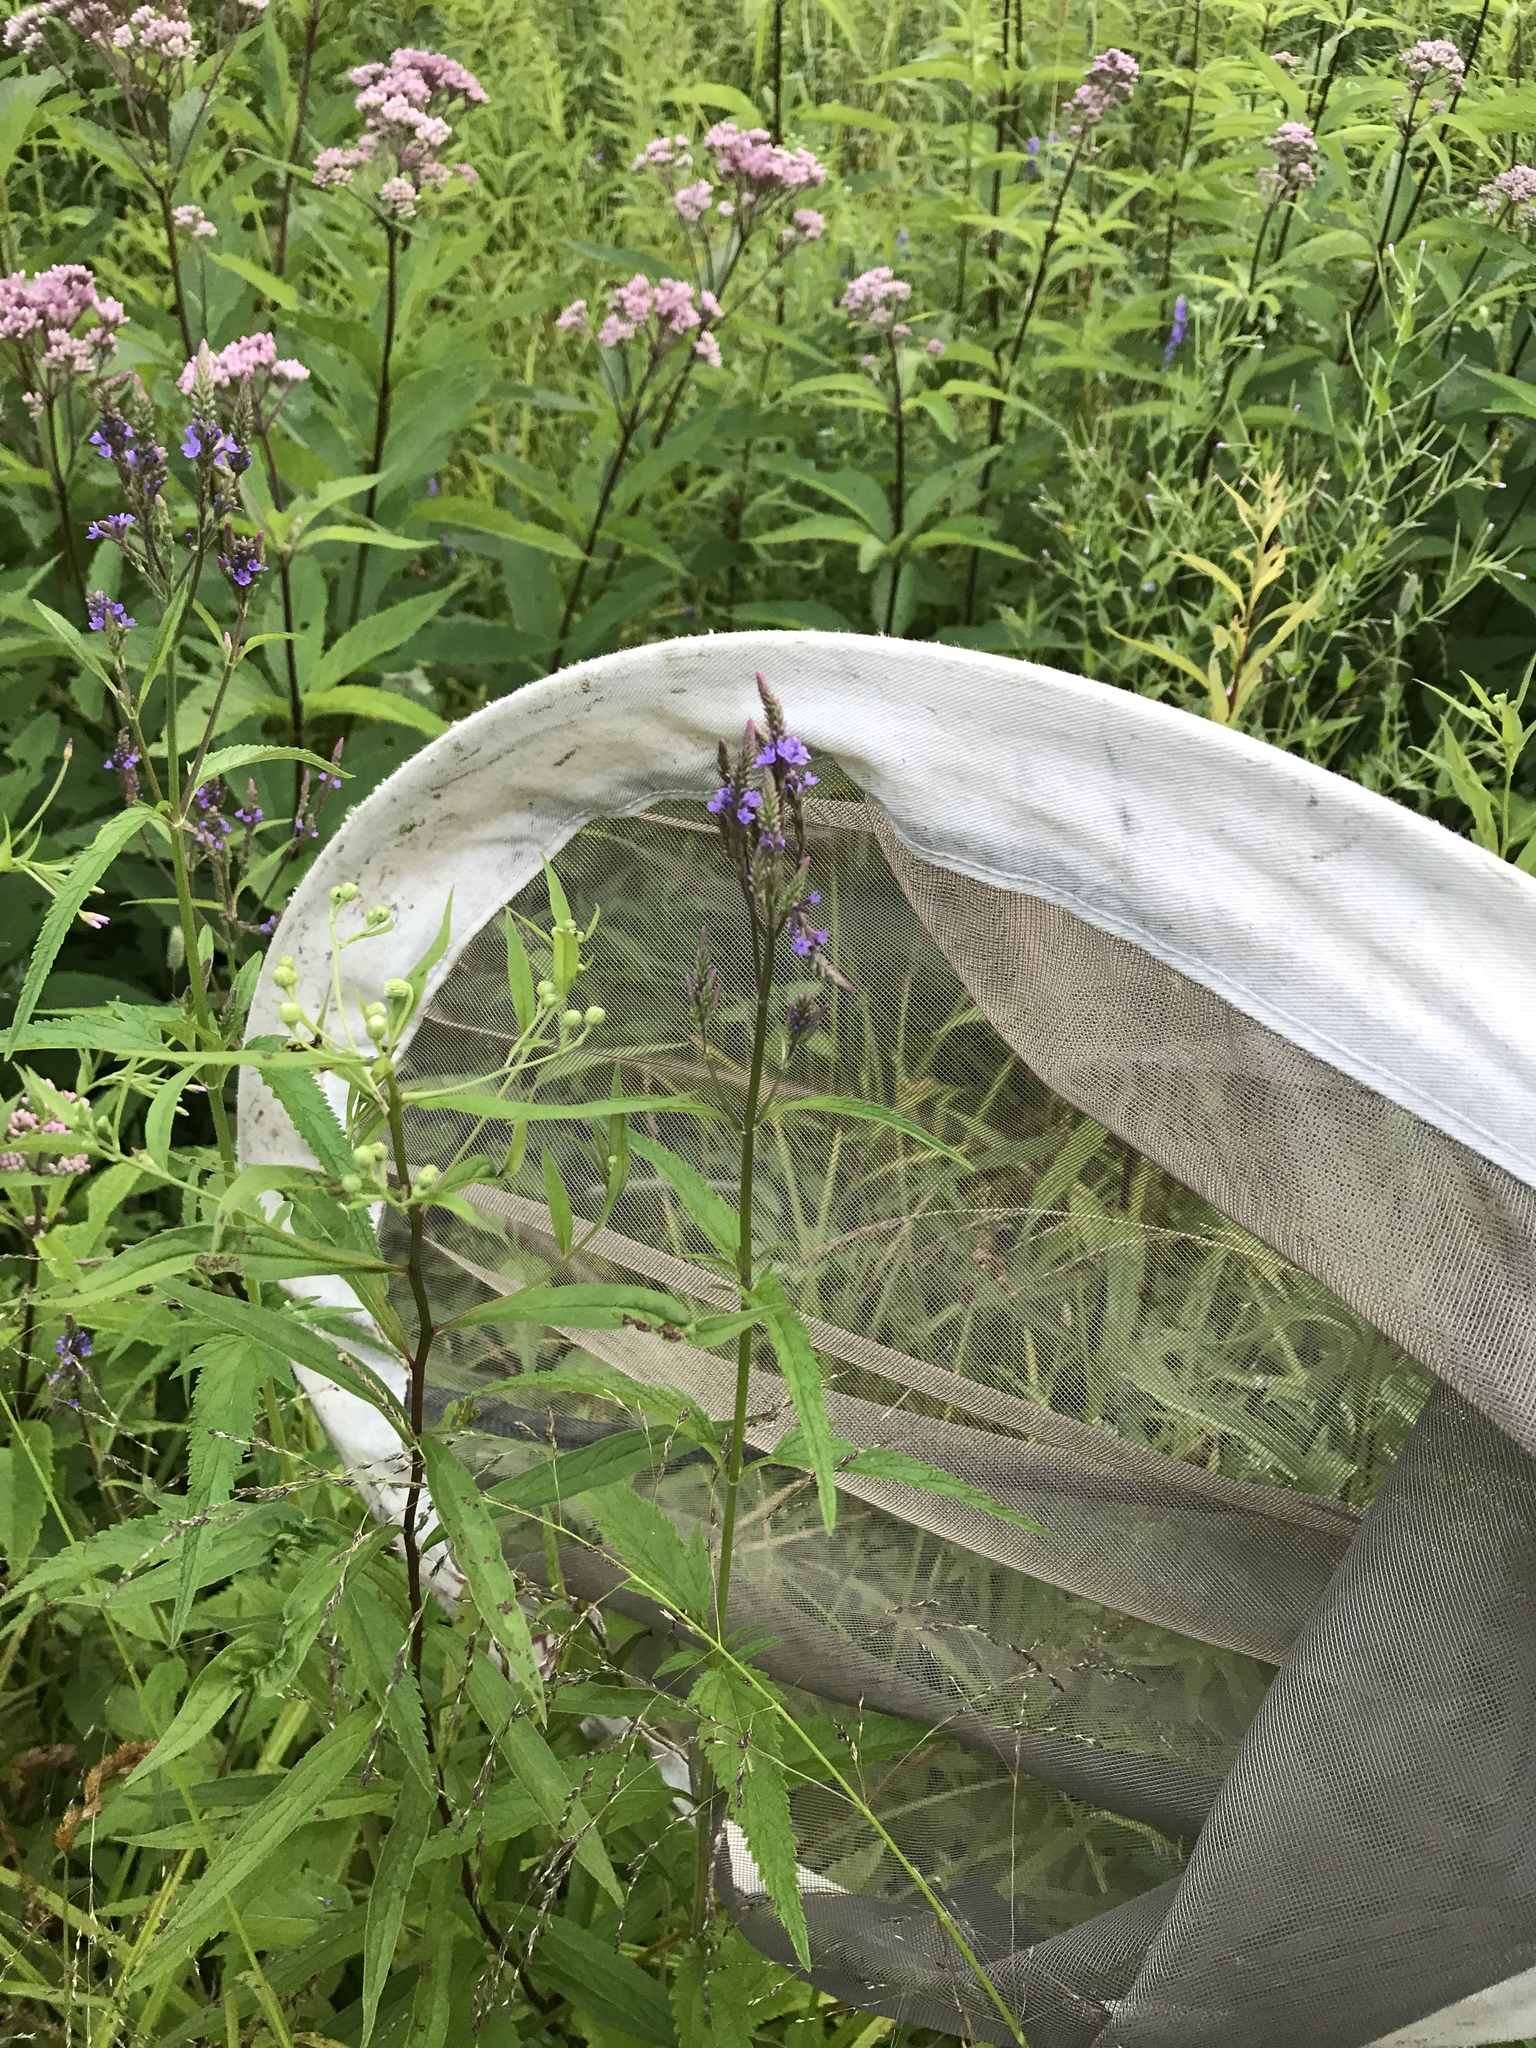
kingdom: Plantae
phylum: Tracheophyta
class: Magnoliopsida
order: Lamiales
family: Verbenaceae
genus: Verbena
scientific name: Verbena hastata
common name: American blue vervain
